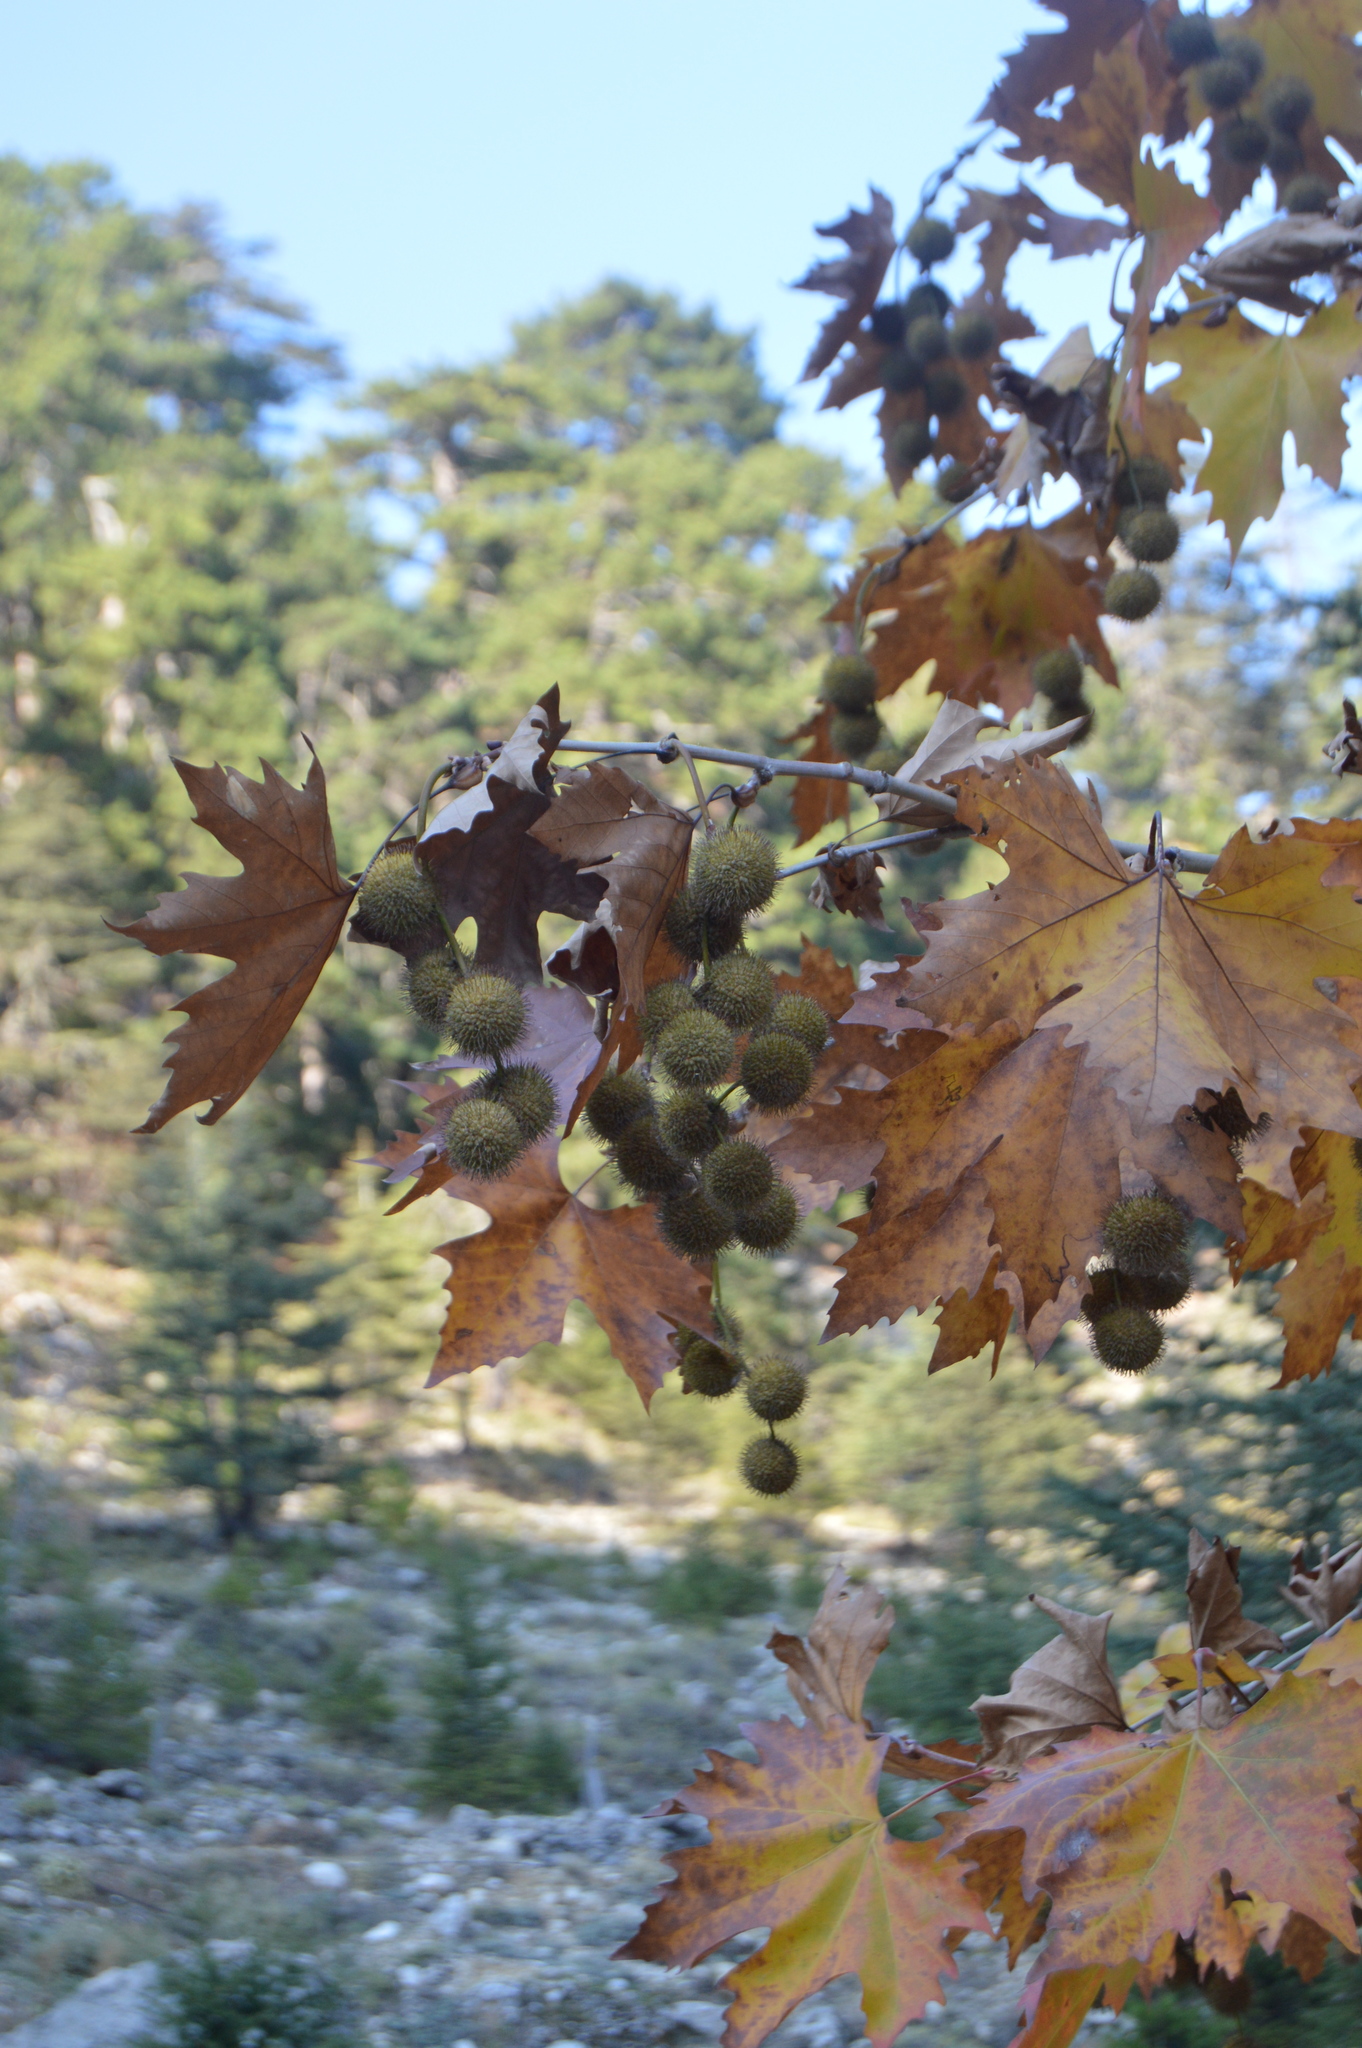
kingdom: Plantae
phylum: Tracheophyta
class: Magnoliopsida
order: Proteales
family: Platanaceae
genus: Platanus
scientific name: Platanus orientalis
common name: Oriental plane
